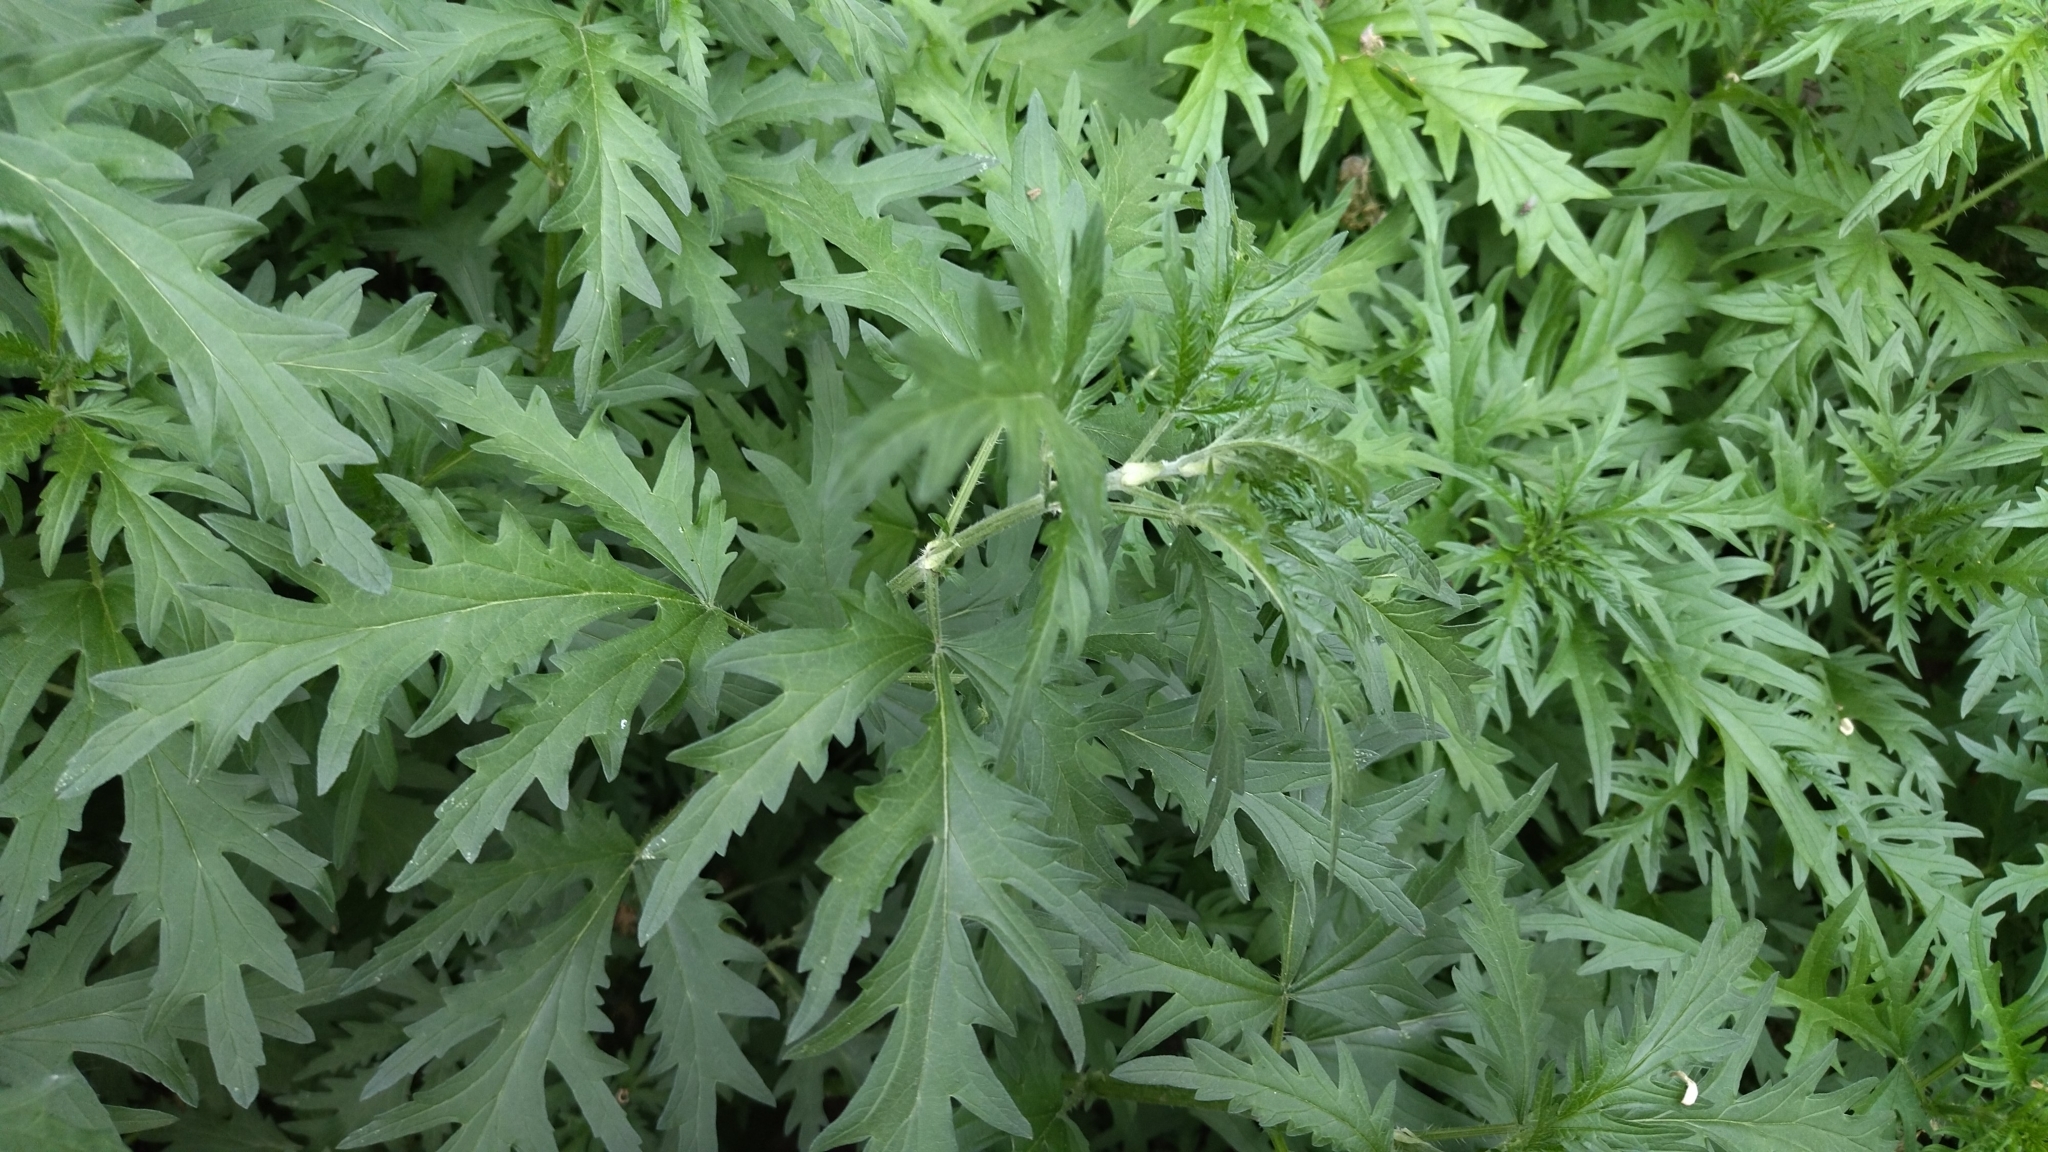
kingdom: Plantae
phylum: Tracheophyta
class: Magnoliopsida
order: Rosales
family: Urticaceae
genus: Urtica
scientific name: Urtica cannabina
